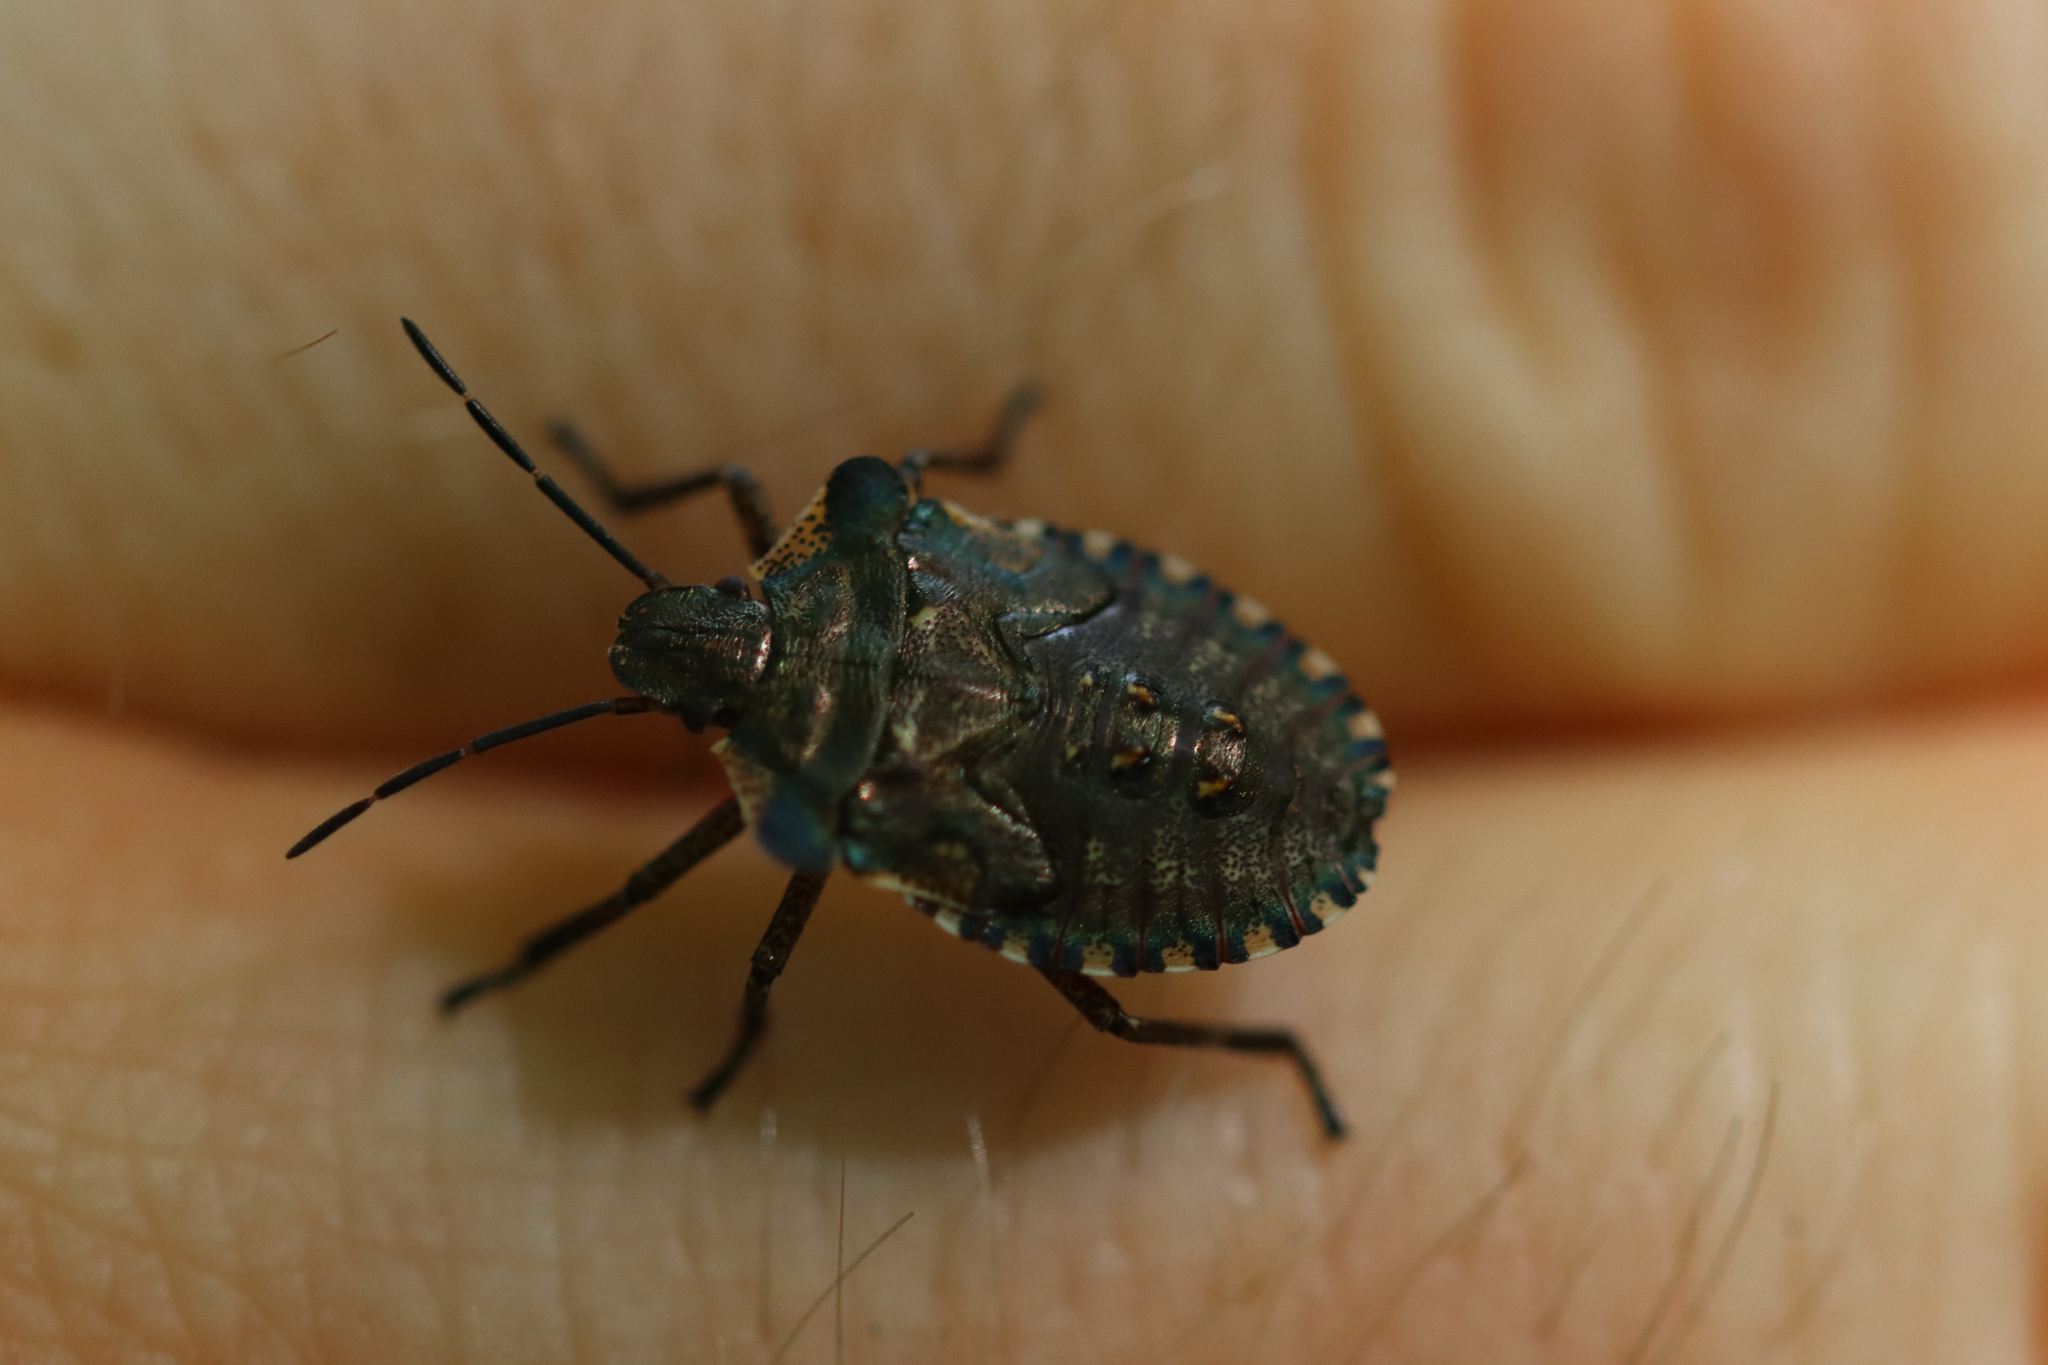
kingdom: Animalia
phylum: Arthropoda
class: Insecta
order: Hemiptera
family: Pentatomidae
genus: Pentatoma
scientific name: Pentatoma rufipes
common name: Forest bug
